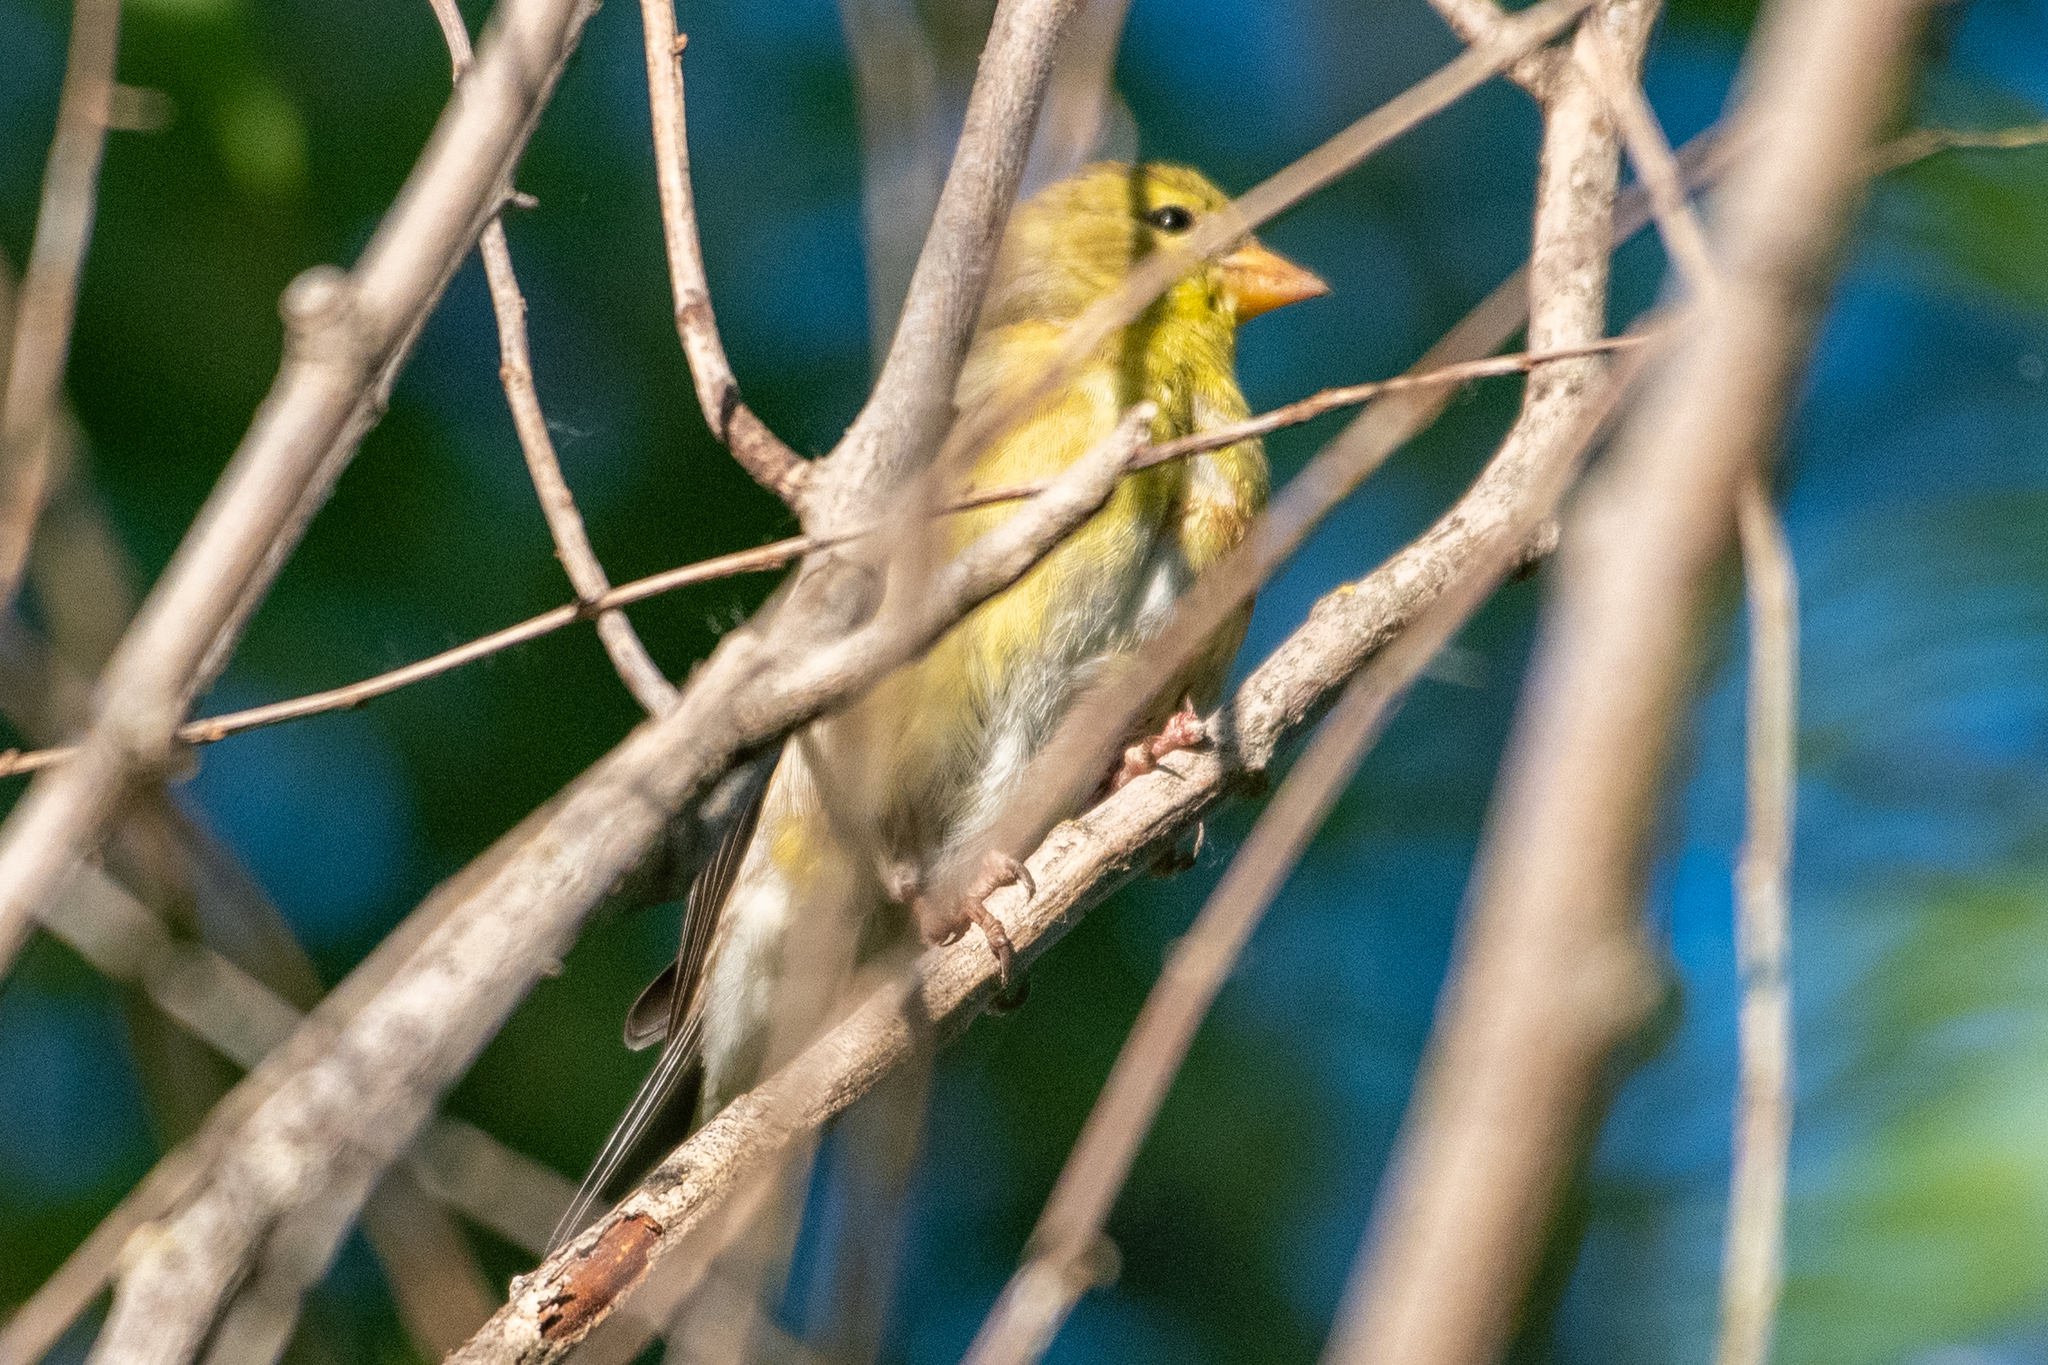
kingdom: Animalia
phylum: Chordata
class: Aves
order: Passeriformes
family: Fringillidae
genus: Spinus
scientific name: Spinus tristis
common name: American goldfinch
